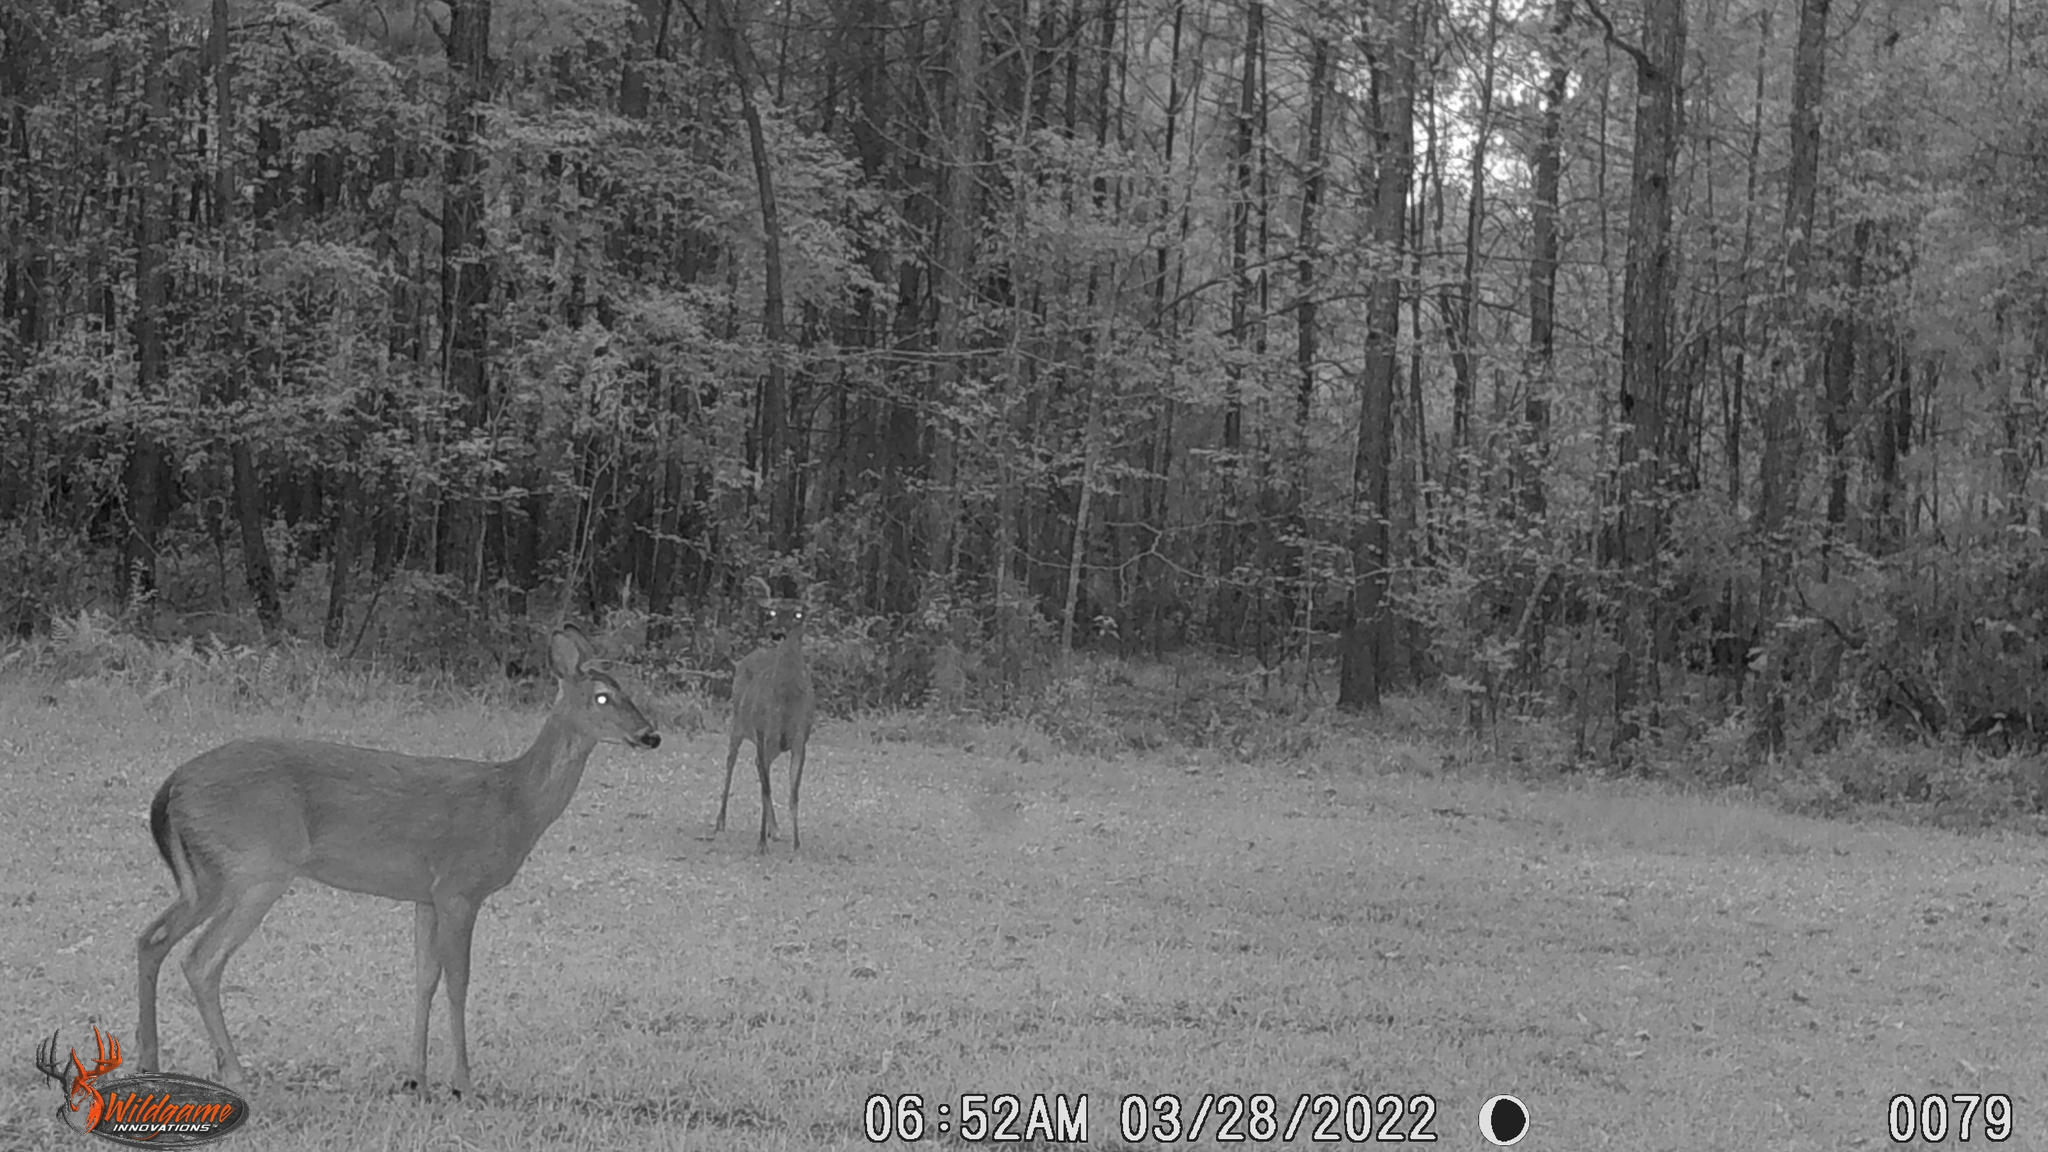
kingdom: Animalia
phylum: Chordata
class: Mammalia
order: Artiodactyla
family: Cervidae
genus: Odocoileus
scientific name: Odocoileus virginianus
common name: White-tailed deer
